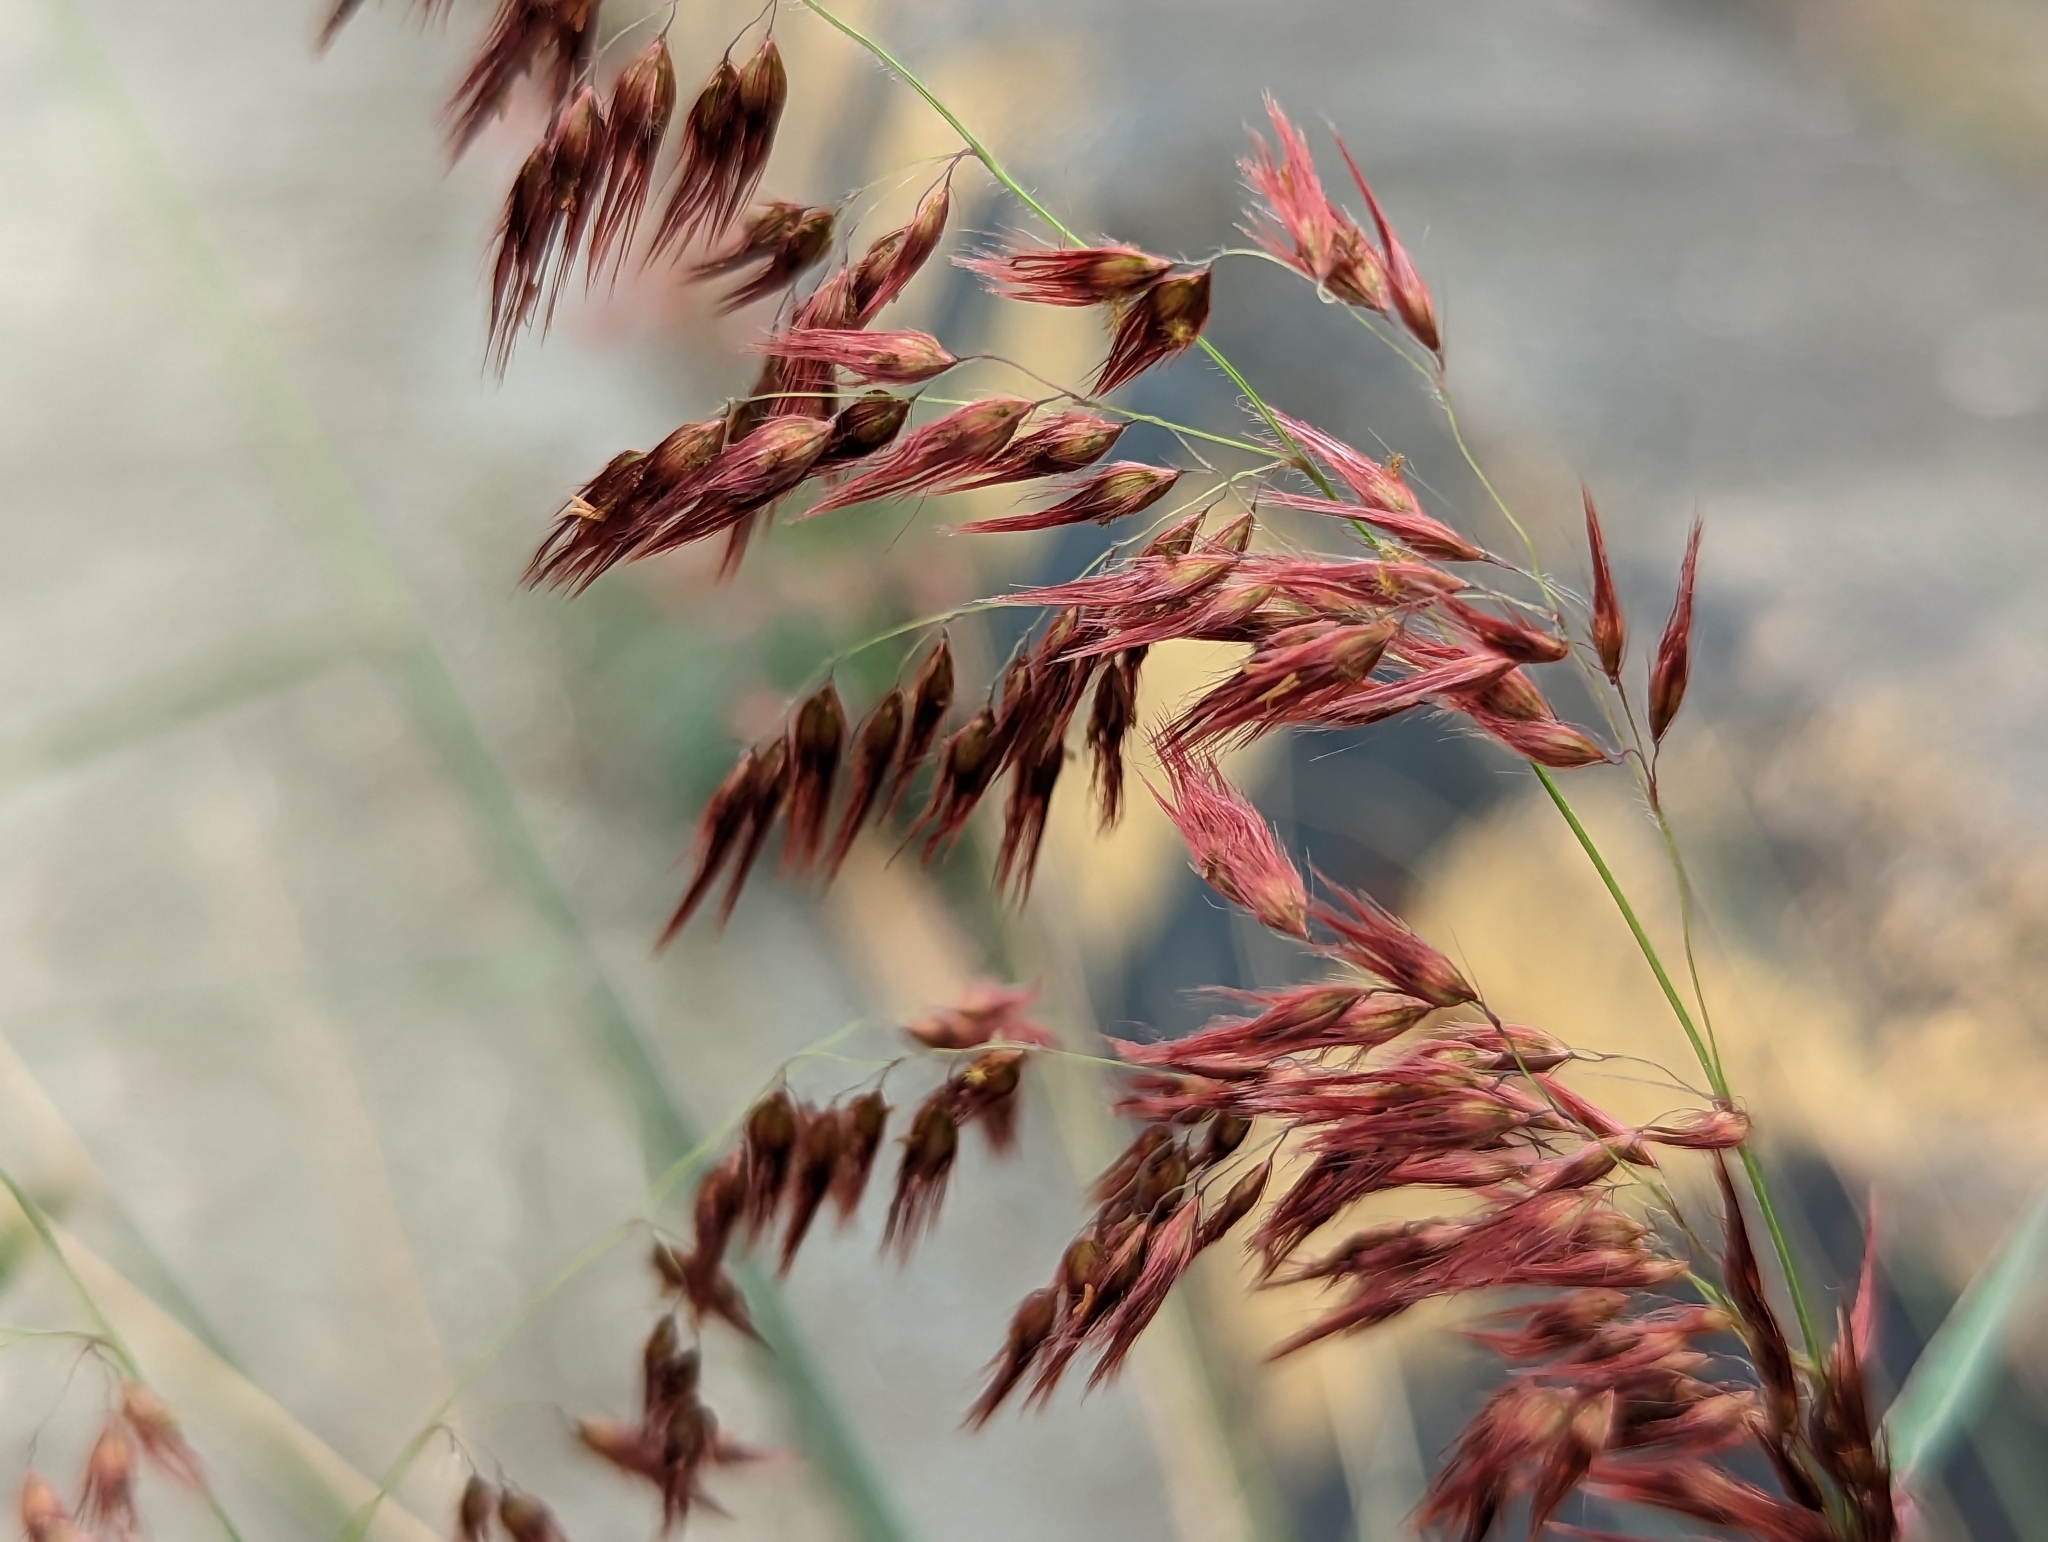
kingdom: Plantae
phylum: Tracheophyta
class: Liliopsida
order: Poales
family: Poaceae
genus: Melinis
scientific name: Melinis repens
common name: Rose natal grass
